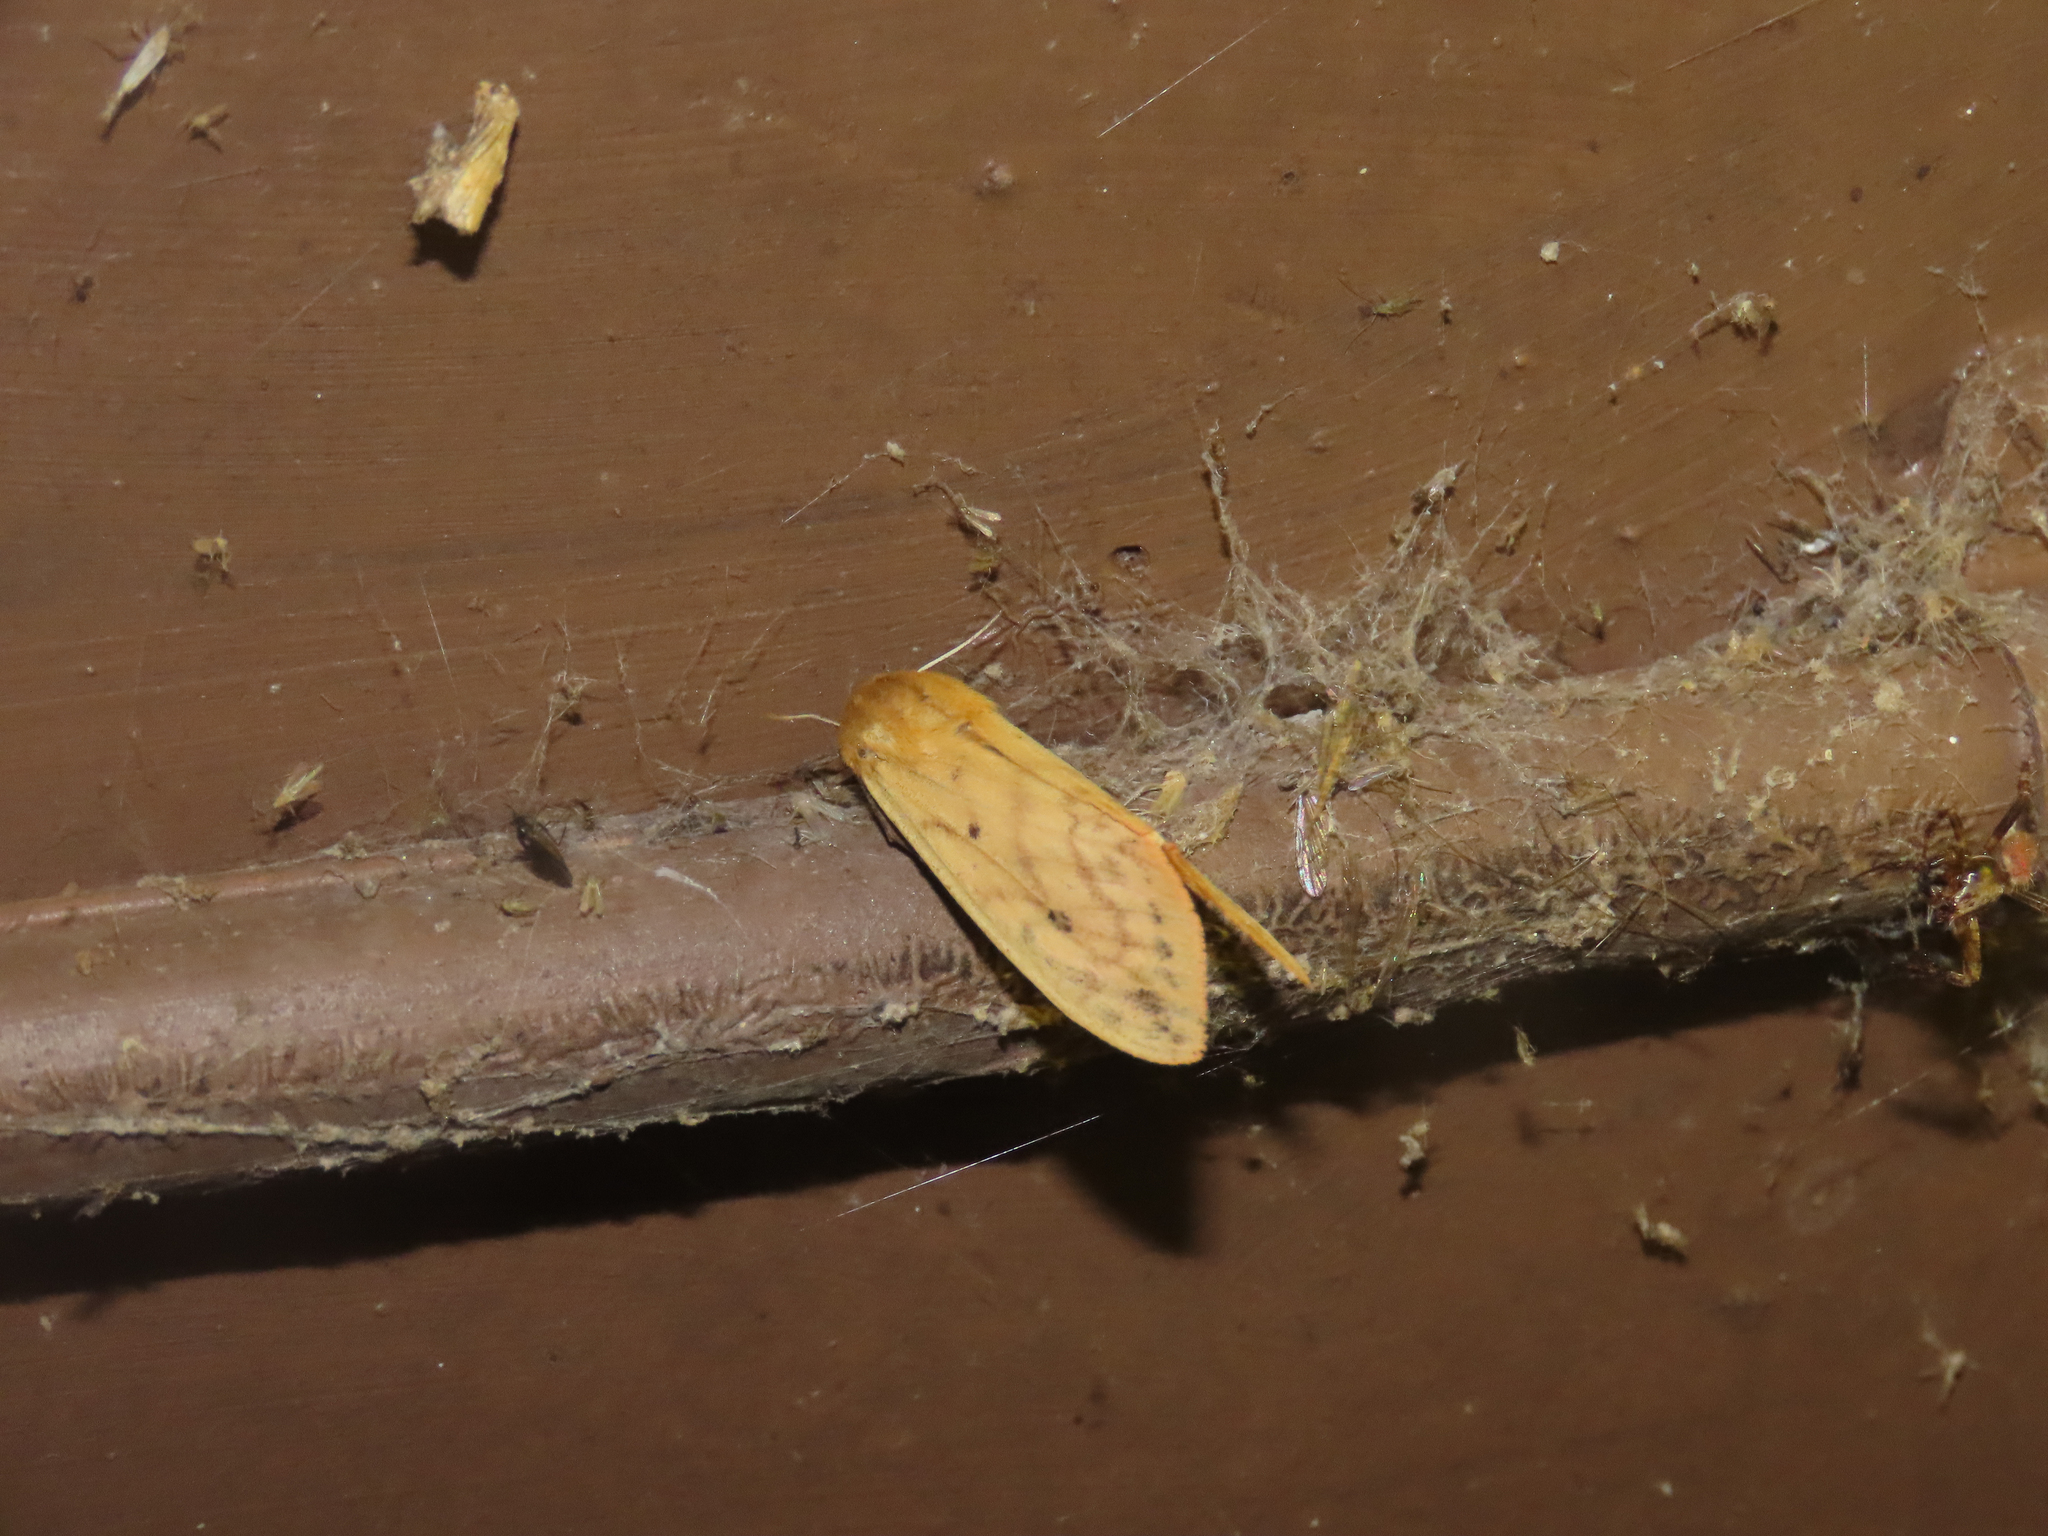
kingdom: Animalia
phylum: Arthropoda
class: Insecta
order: Lepidoptera
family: Erebidae
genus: Pyrrharctia
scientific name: Pyrrharctia isabella
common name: Isabella tiger moth
